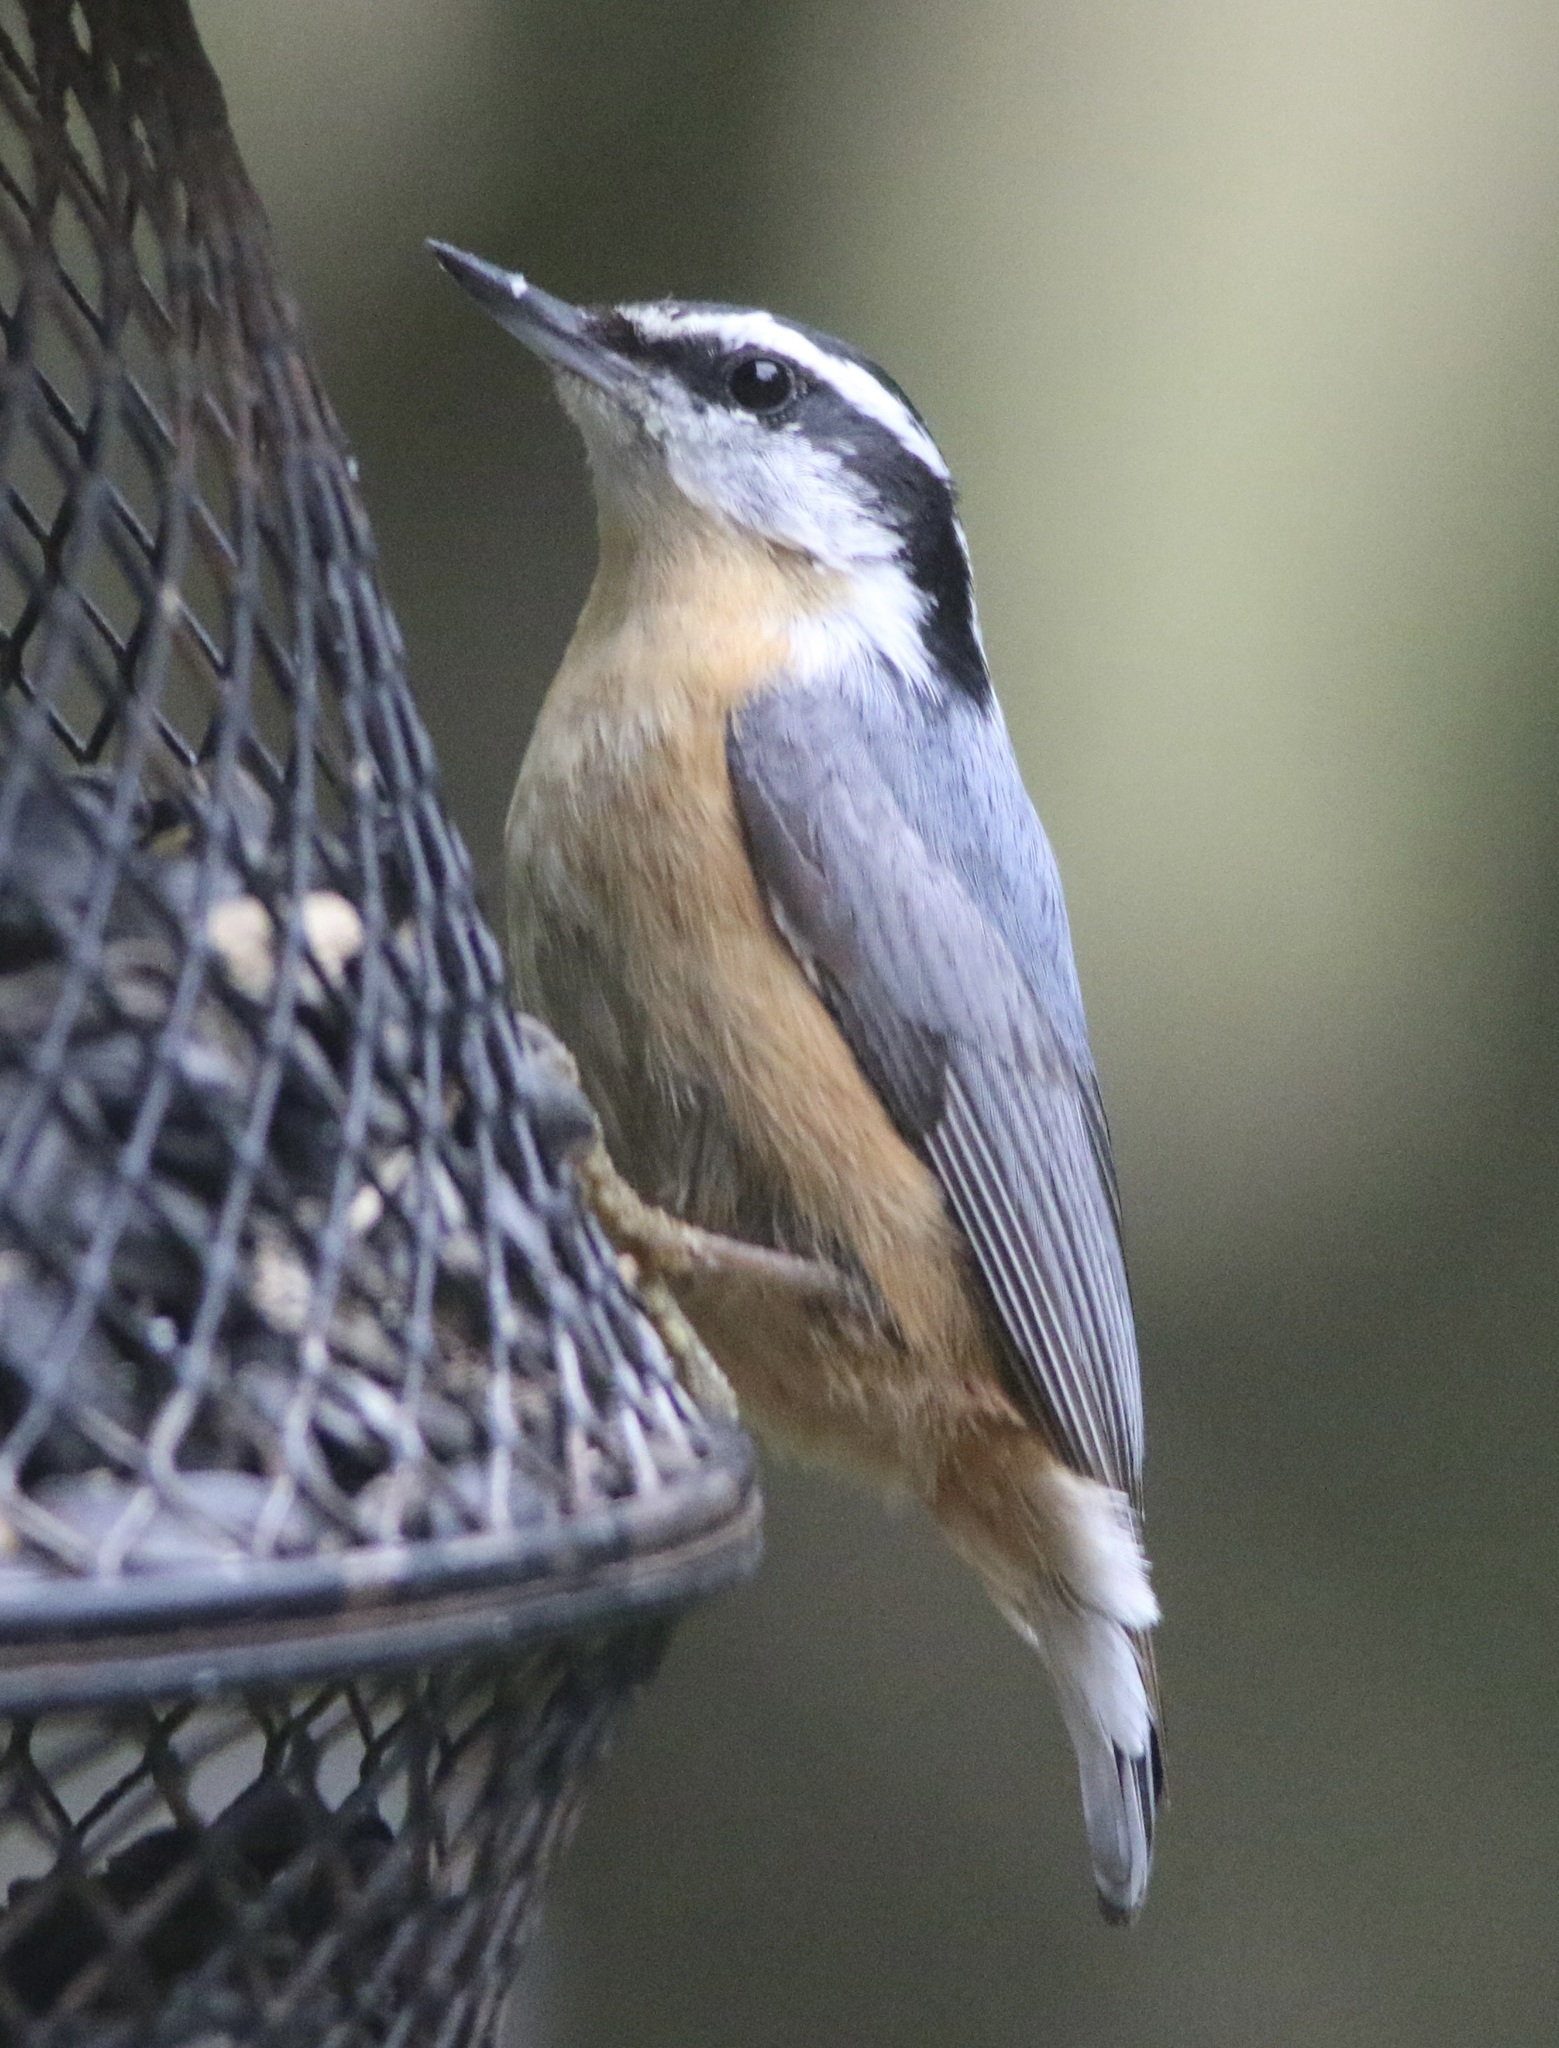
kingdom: Animalia
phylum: Chordata
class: Aves
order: Passeriformes
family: Sittidae
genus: Sitta
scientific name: Sitta canadensis
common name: Red-breasted nuthatch
